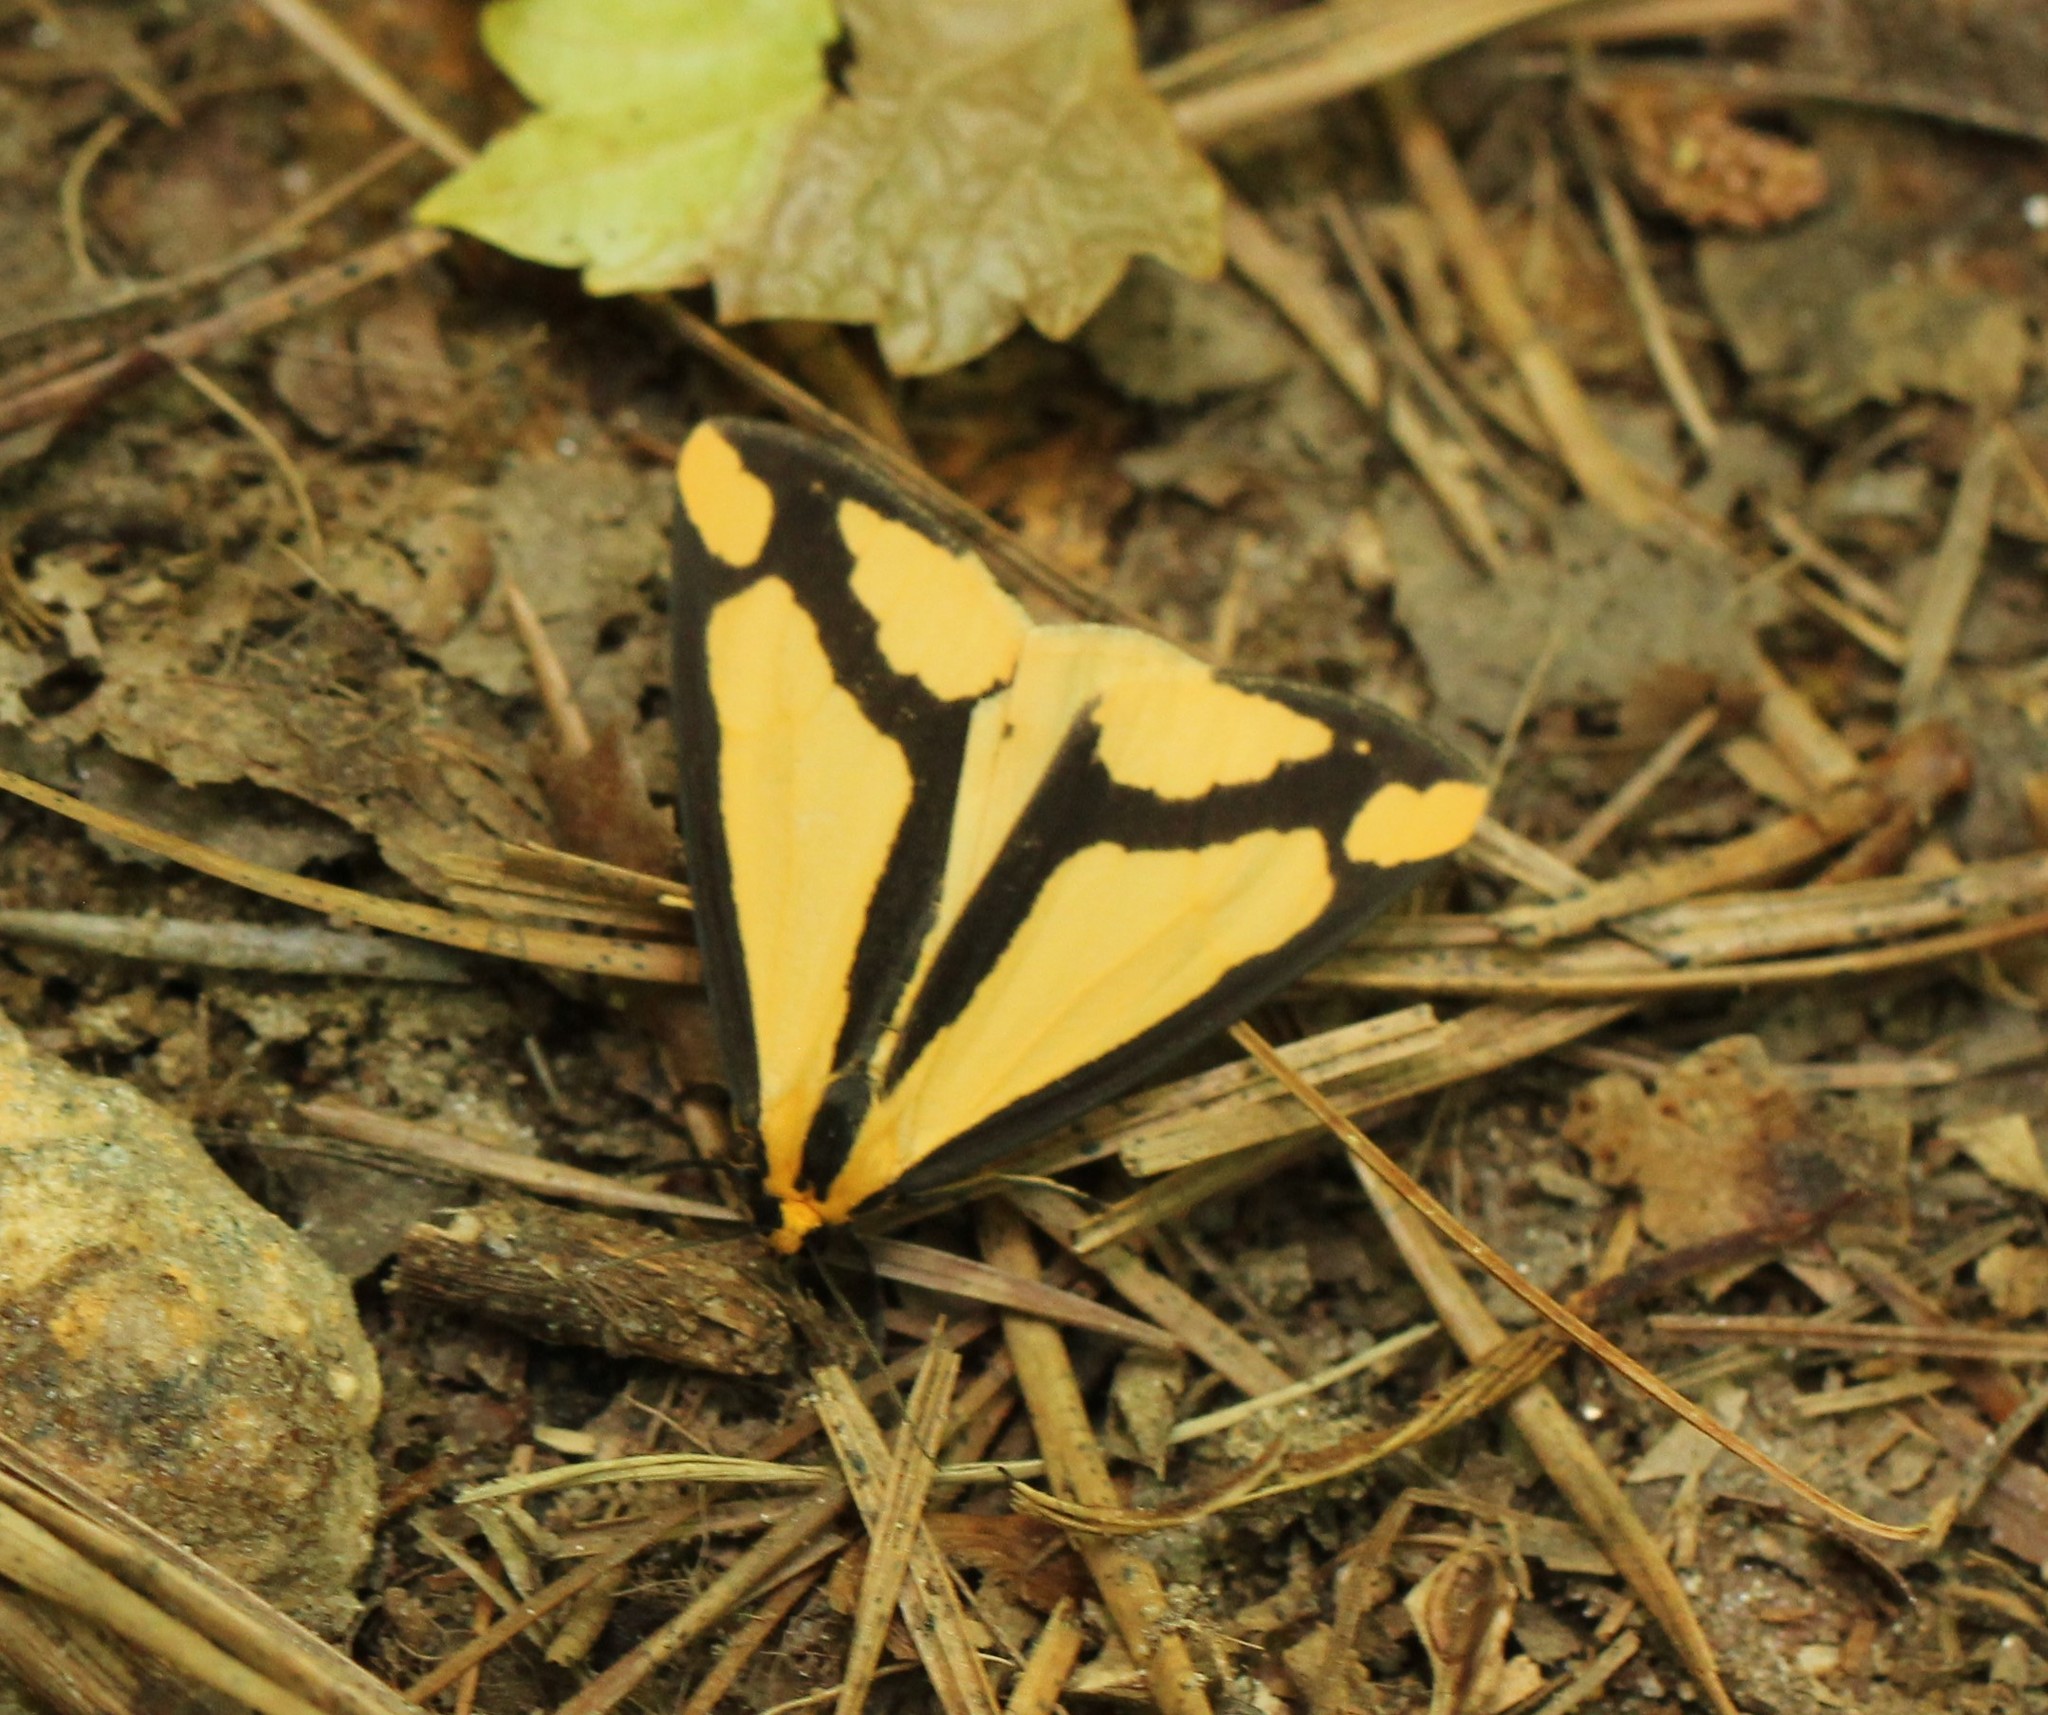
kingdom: Animalia
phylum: Arthropoda
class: Insecta
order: Lepidoptera
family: Erebidae
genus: Haploa
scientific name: Haploa lecontei
